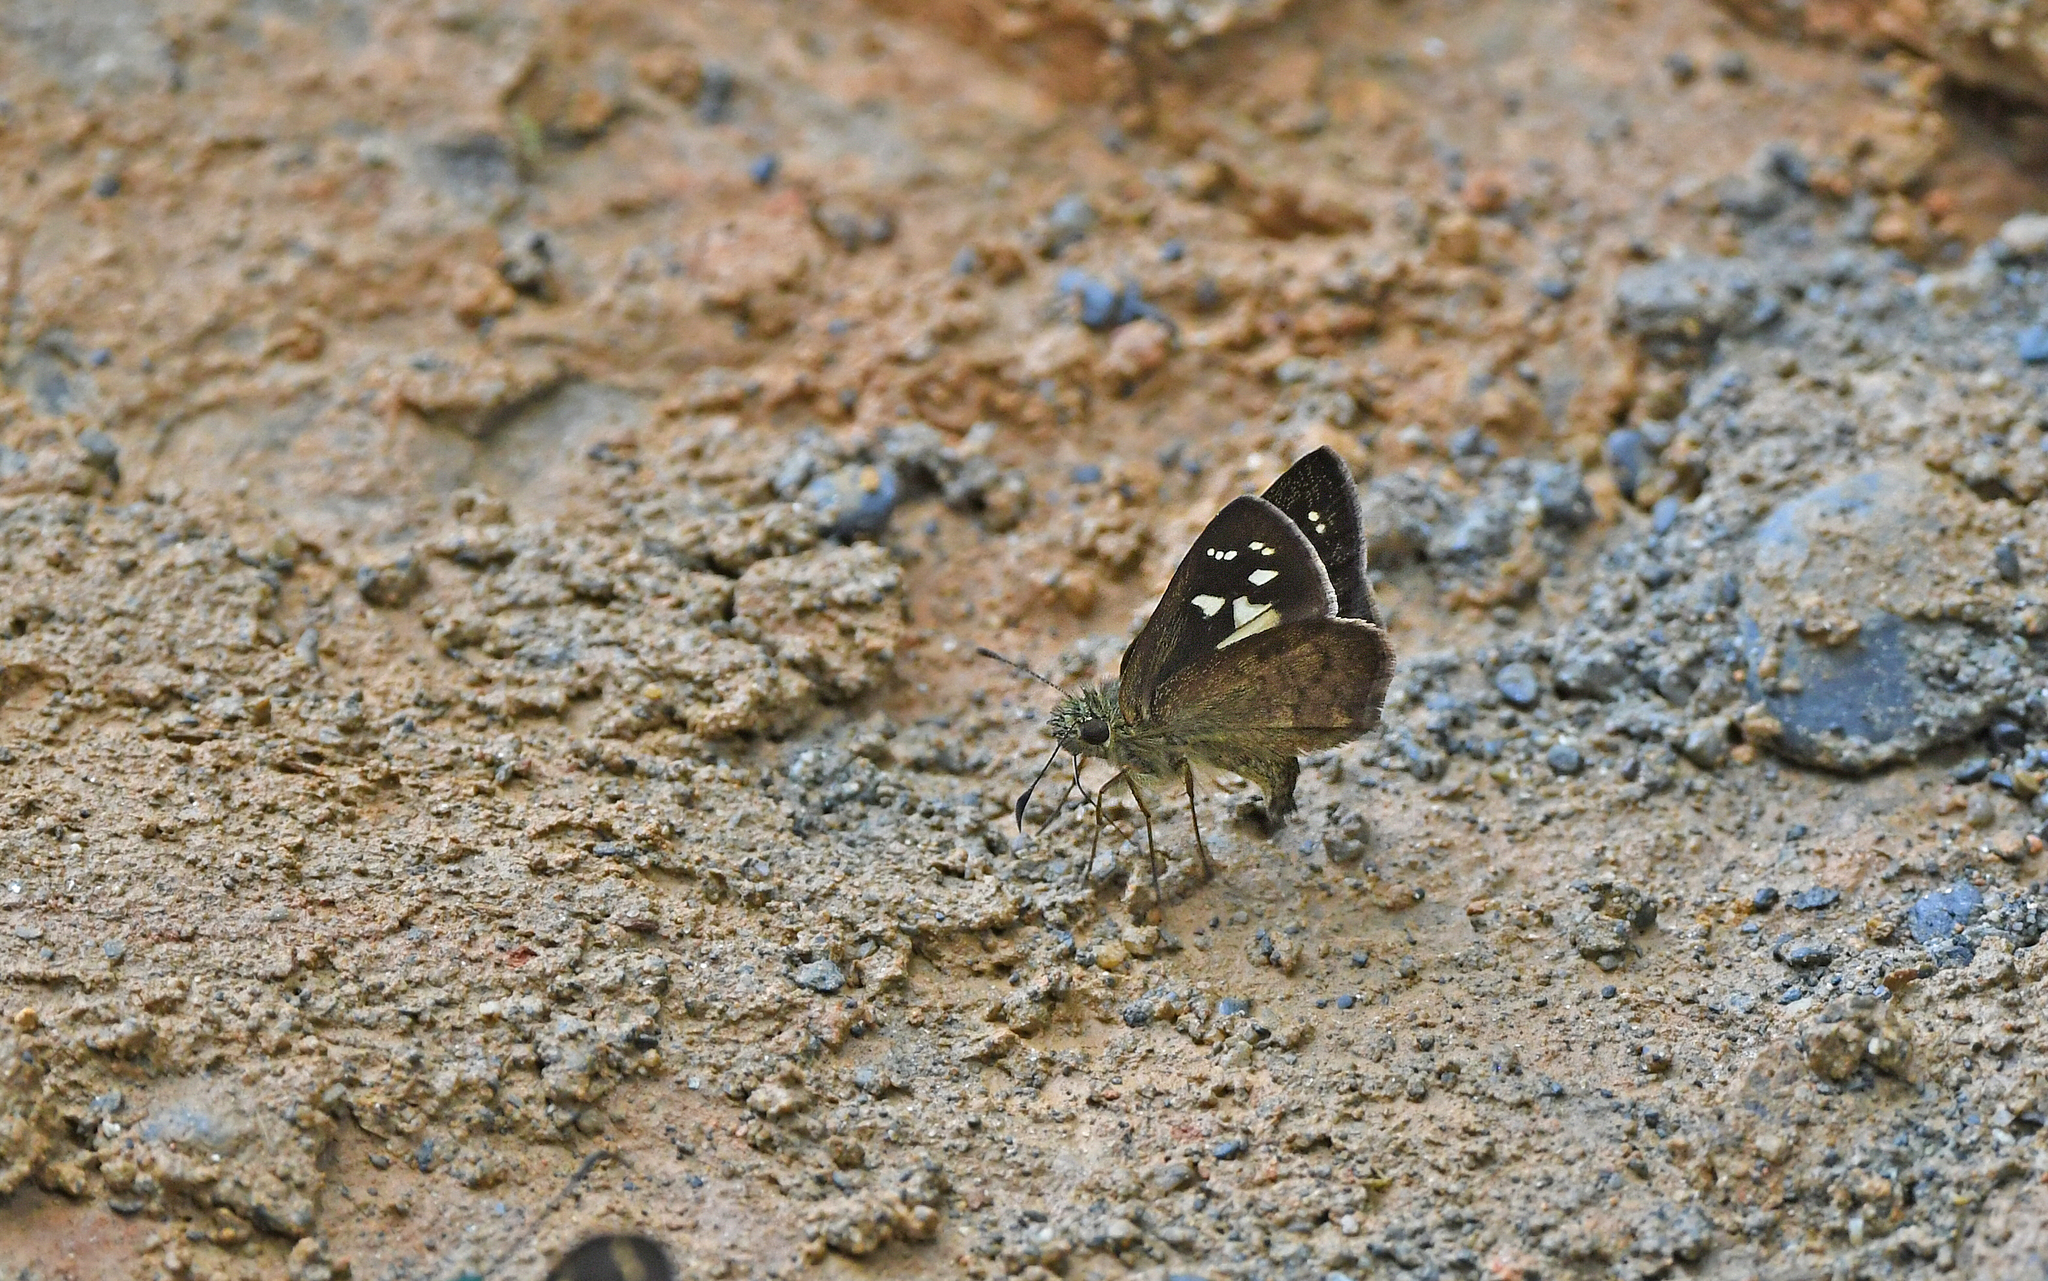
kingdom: Animalia
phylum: Arthropoda
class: Insecta
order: Lepidoptera
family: Hesperiidae
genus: Dalla
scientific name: Dalla plancus
